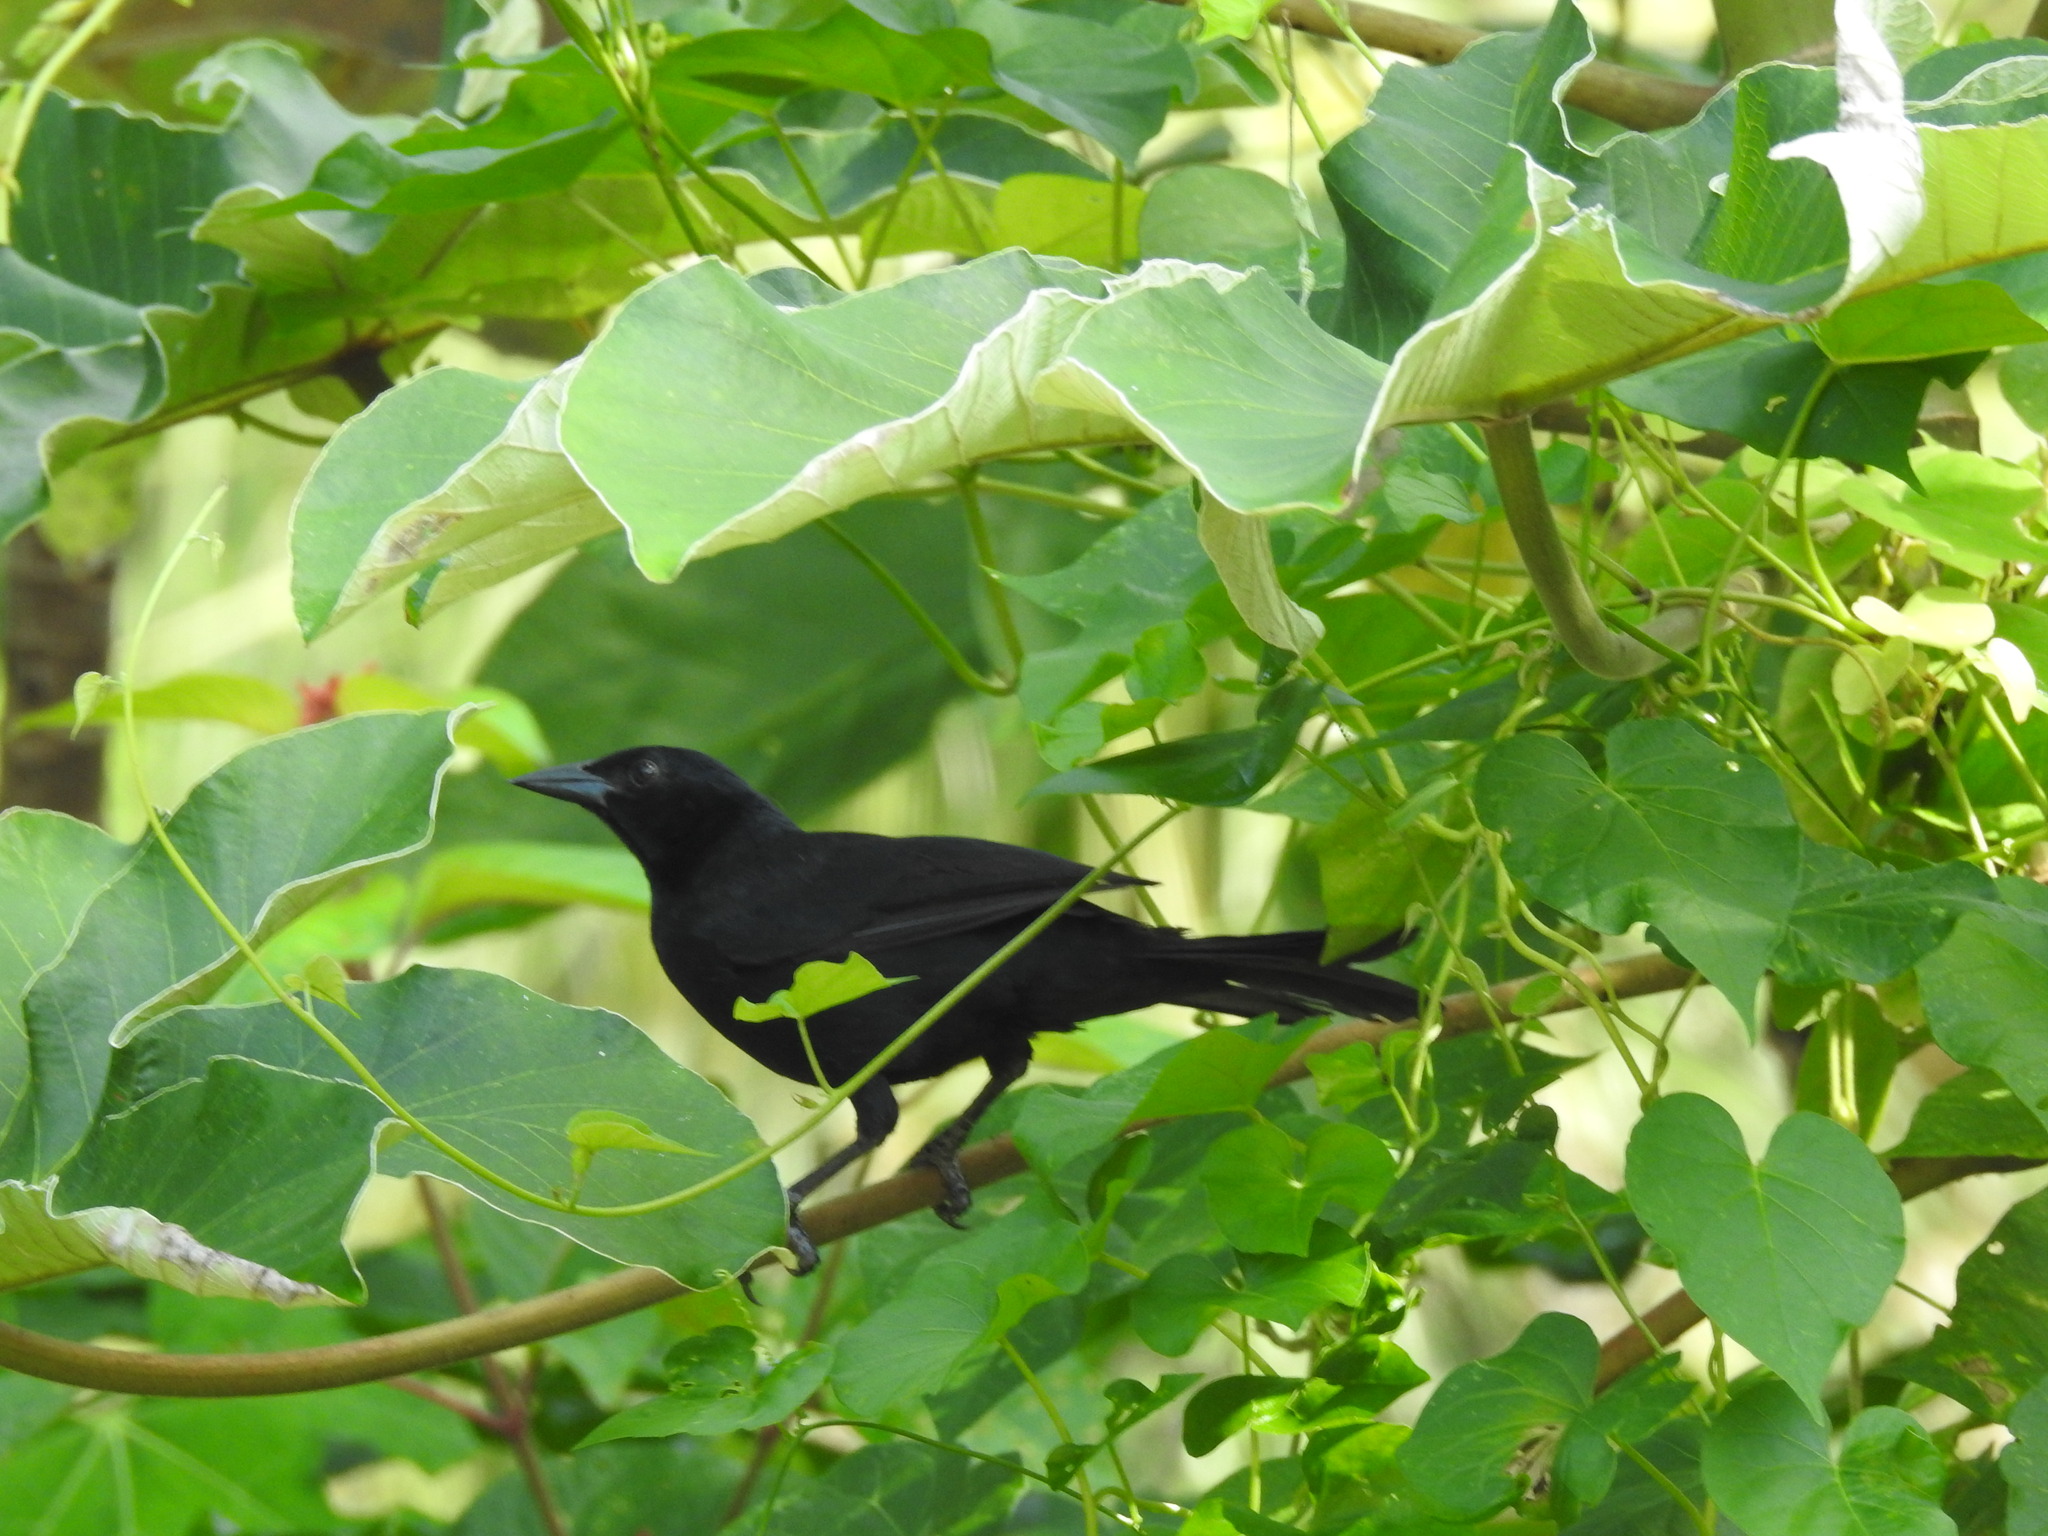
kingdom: Animalia
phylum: Chordata
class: Aves
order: Passeriformes
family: Icteridae
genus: Dives
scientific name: Dives dives
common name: Melodious blackbird
